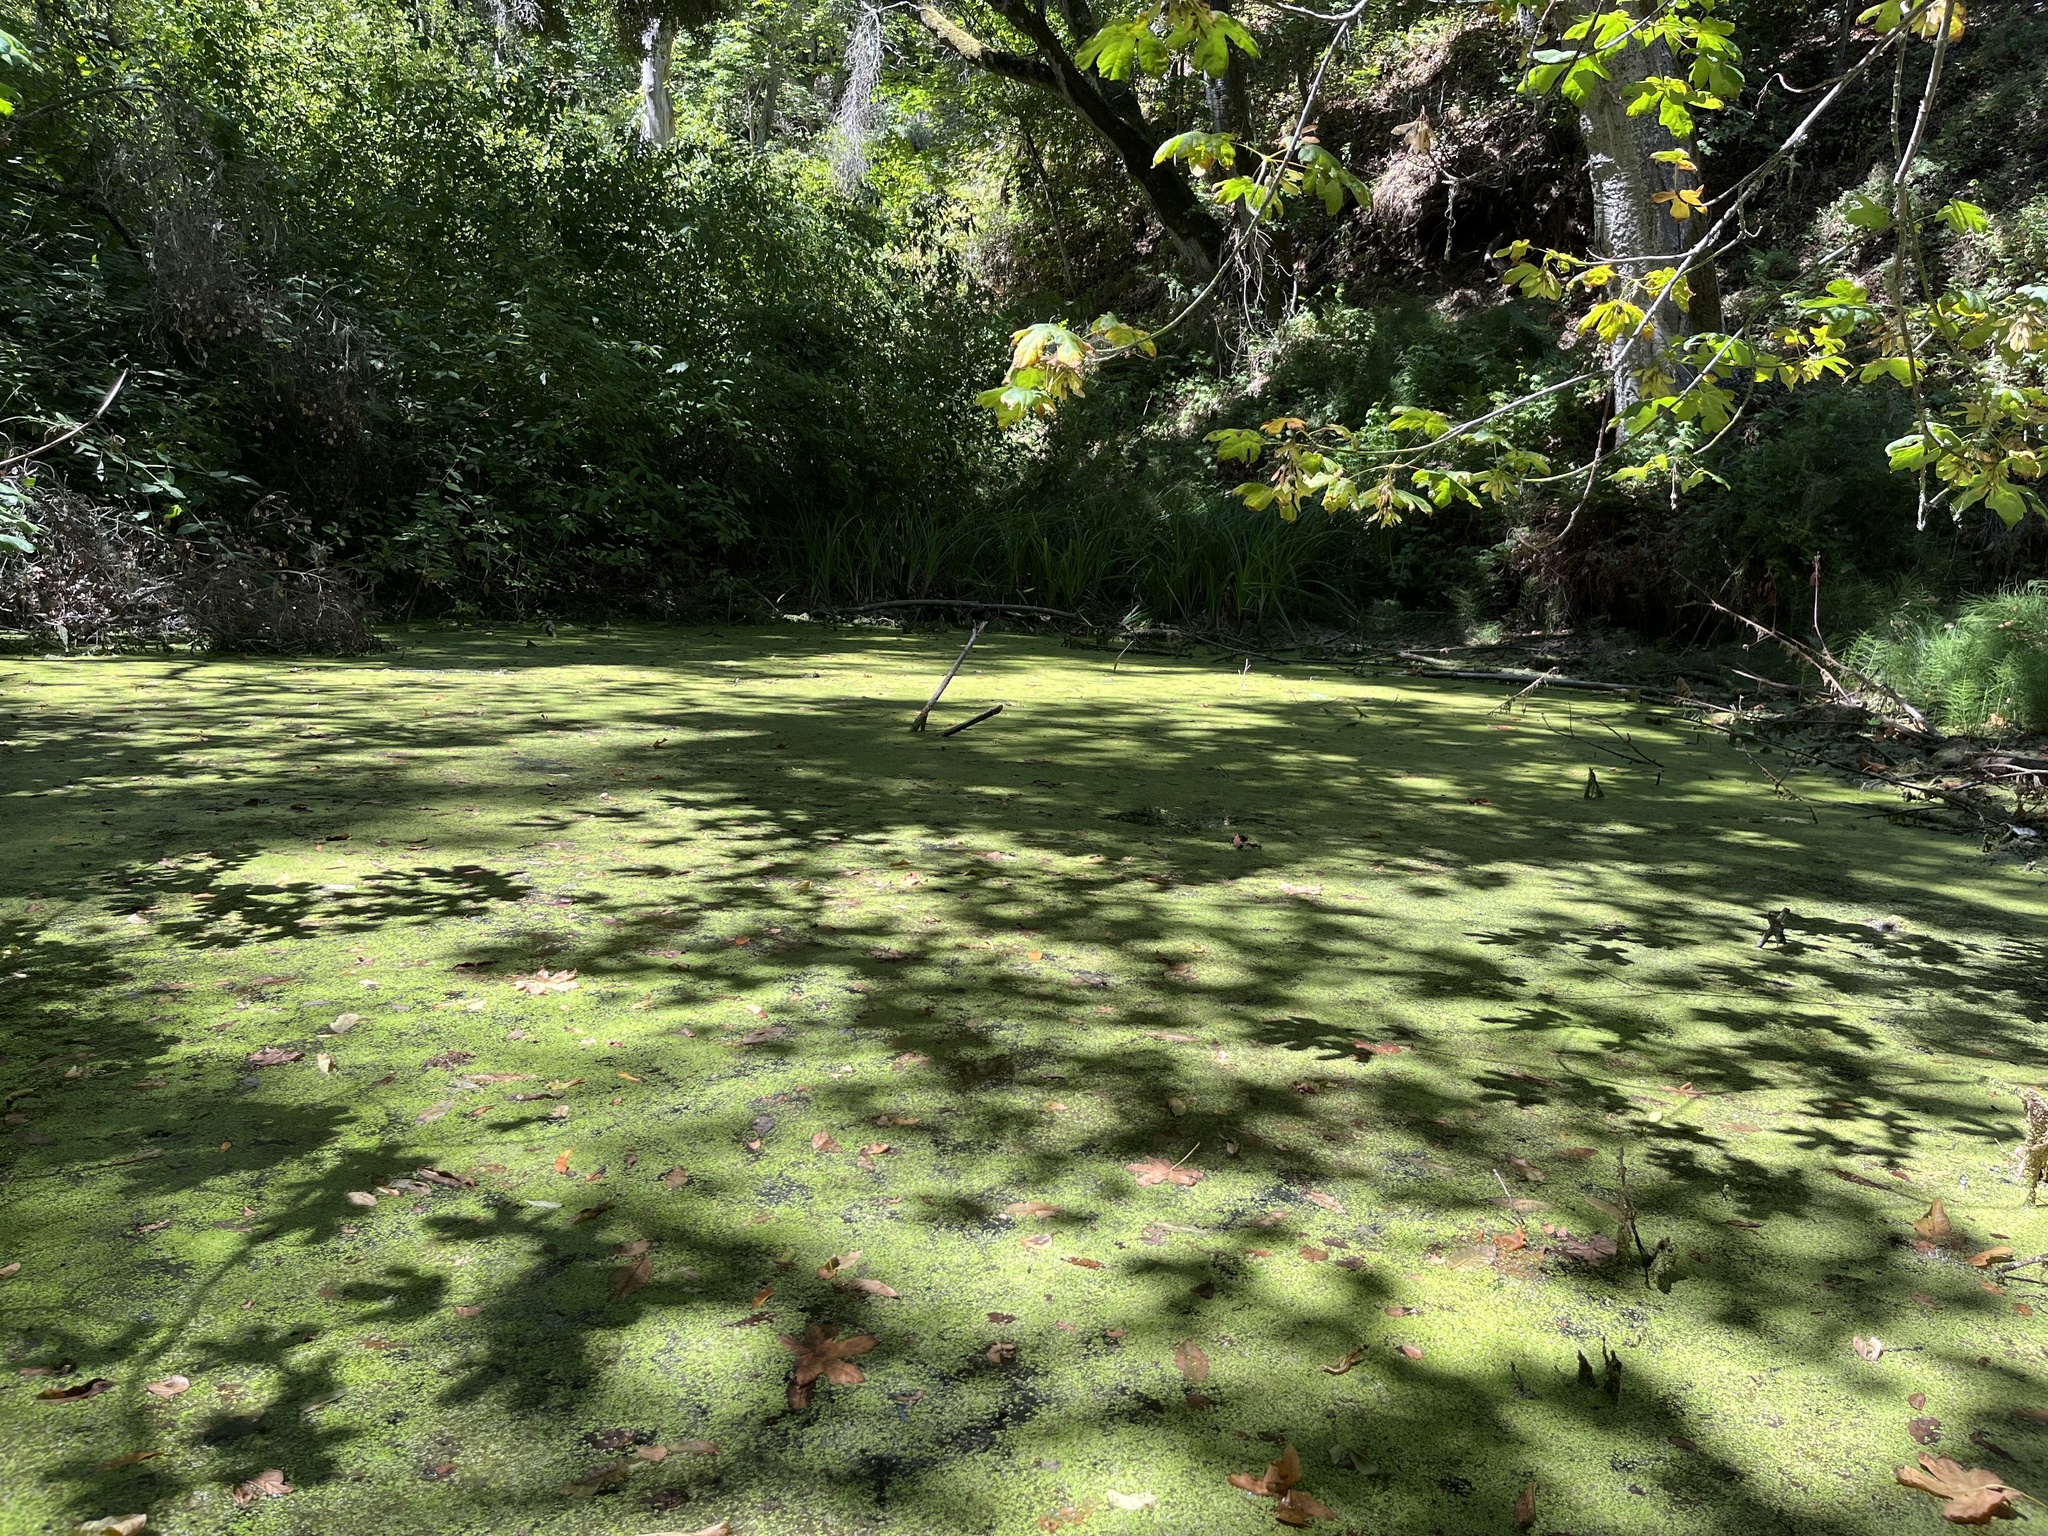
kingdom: Plantae
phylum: Tracheophyta
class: Liliopsida
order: Alismatales
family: Araceae
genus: Lemna
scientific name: Lemna
